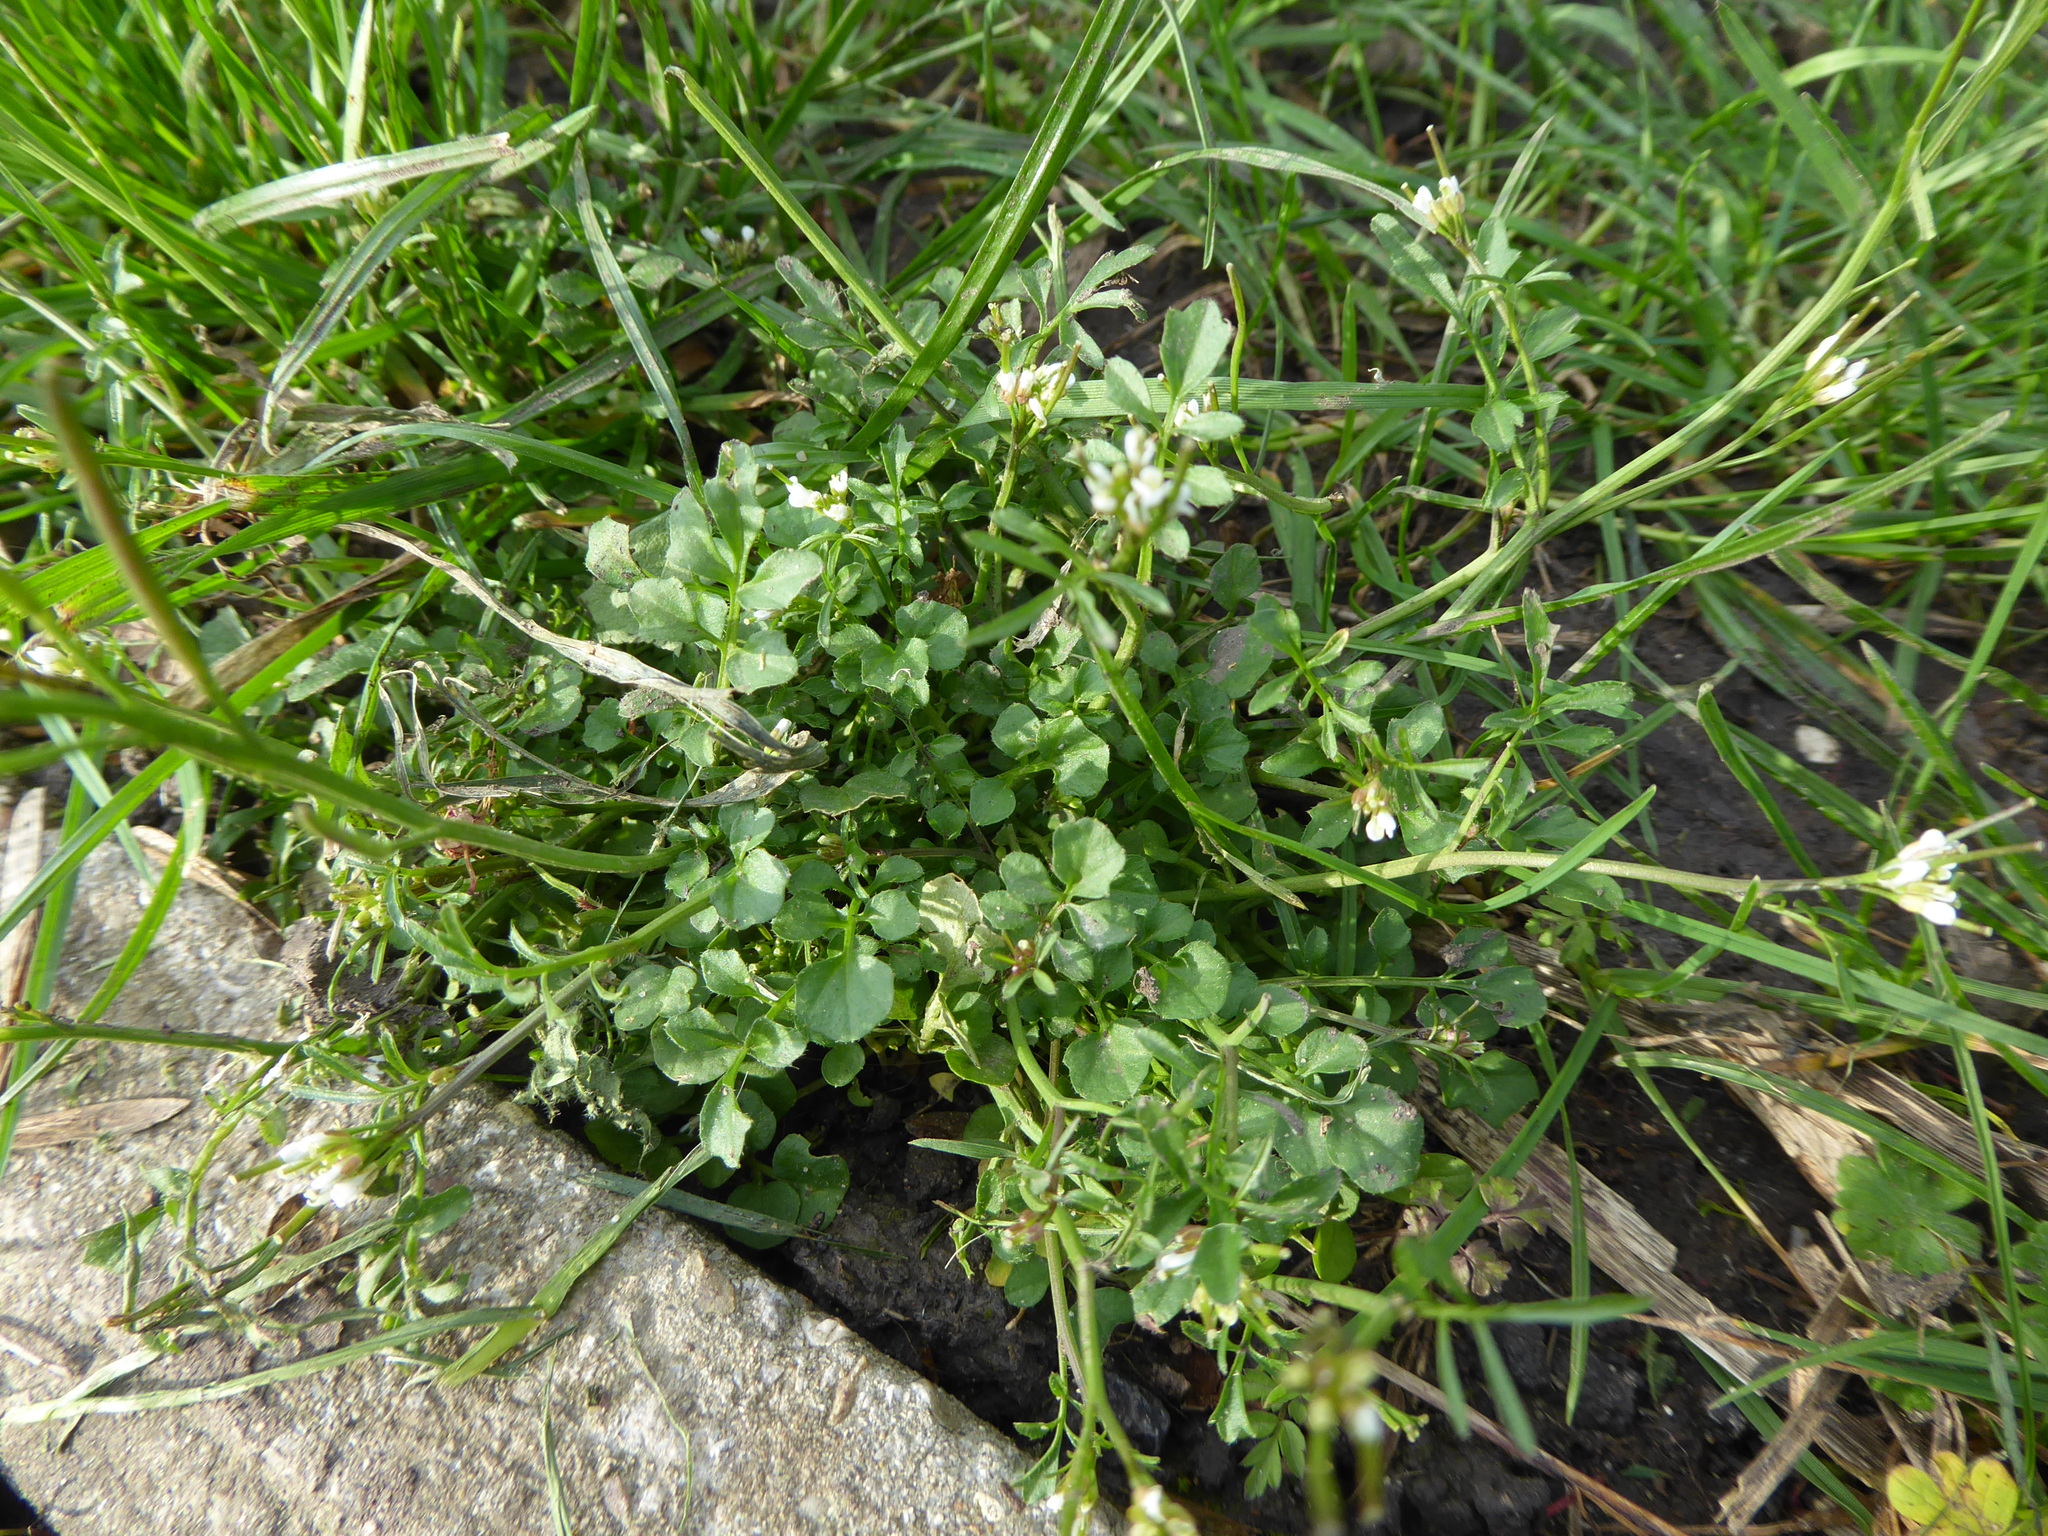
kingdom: Plantae
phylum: Tracheophyta
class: Magnoliopsida
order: Brassicales
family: Brassicaceae
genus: Cardamine
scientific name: Cardamine hirsuta
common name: Hairy bittercress
